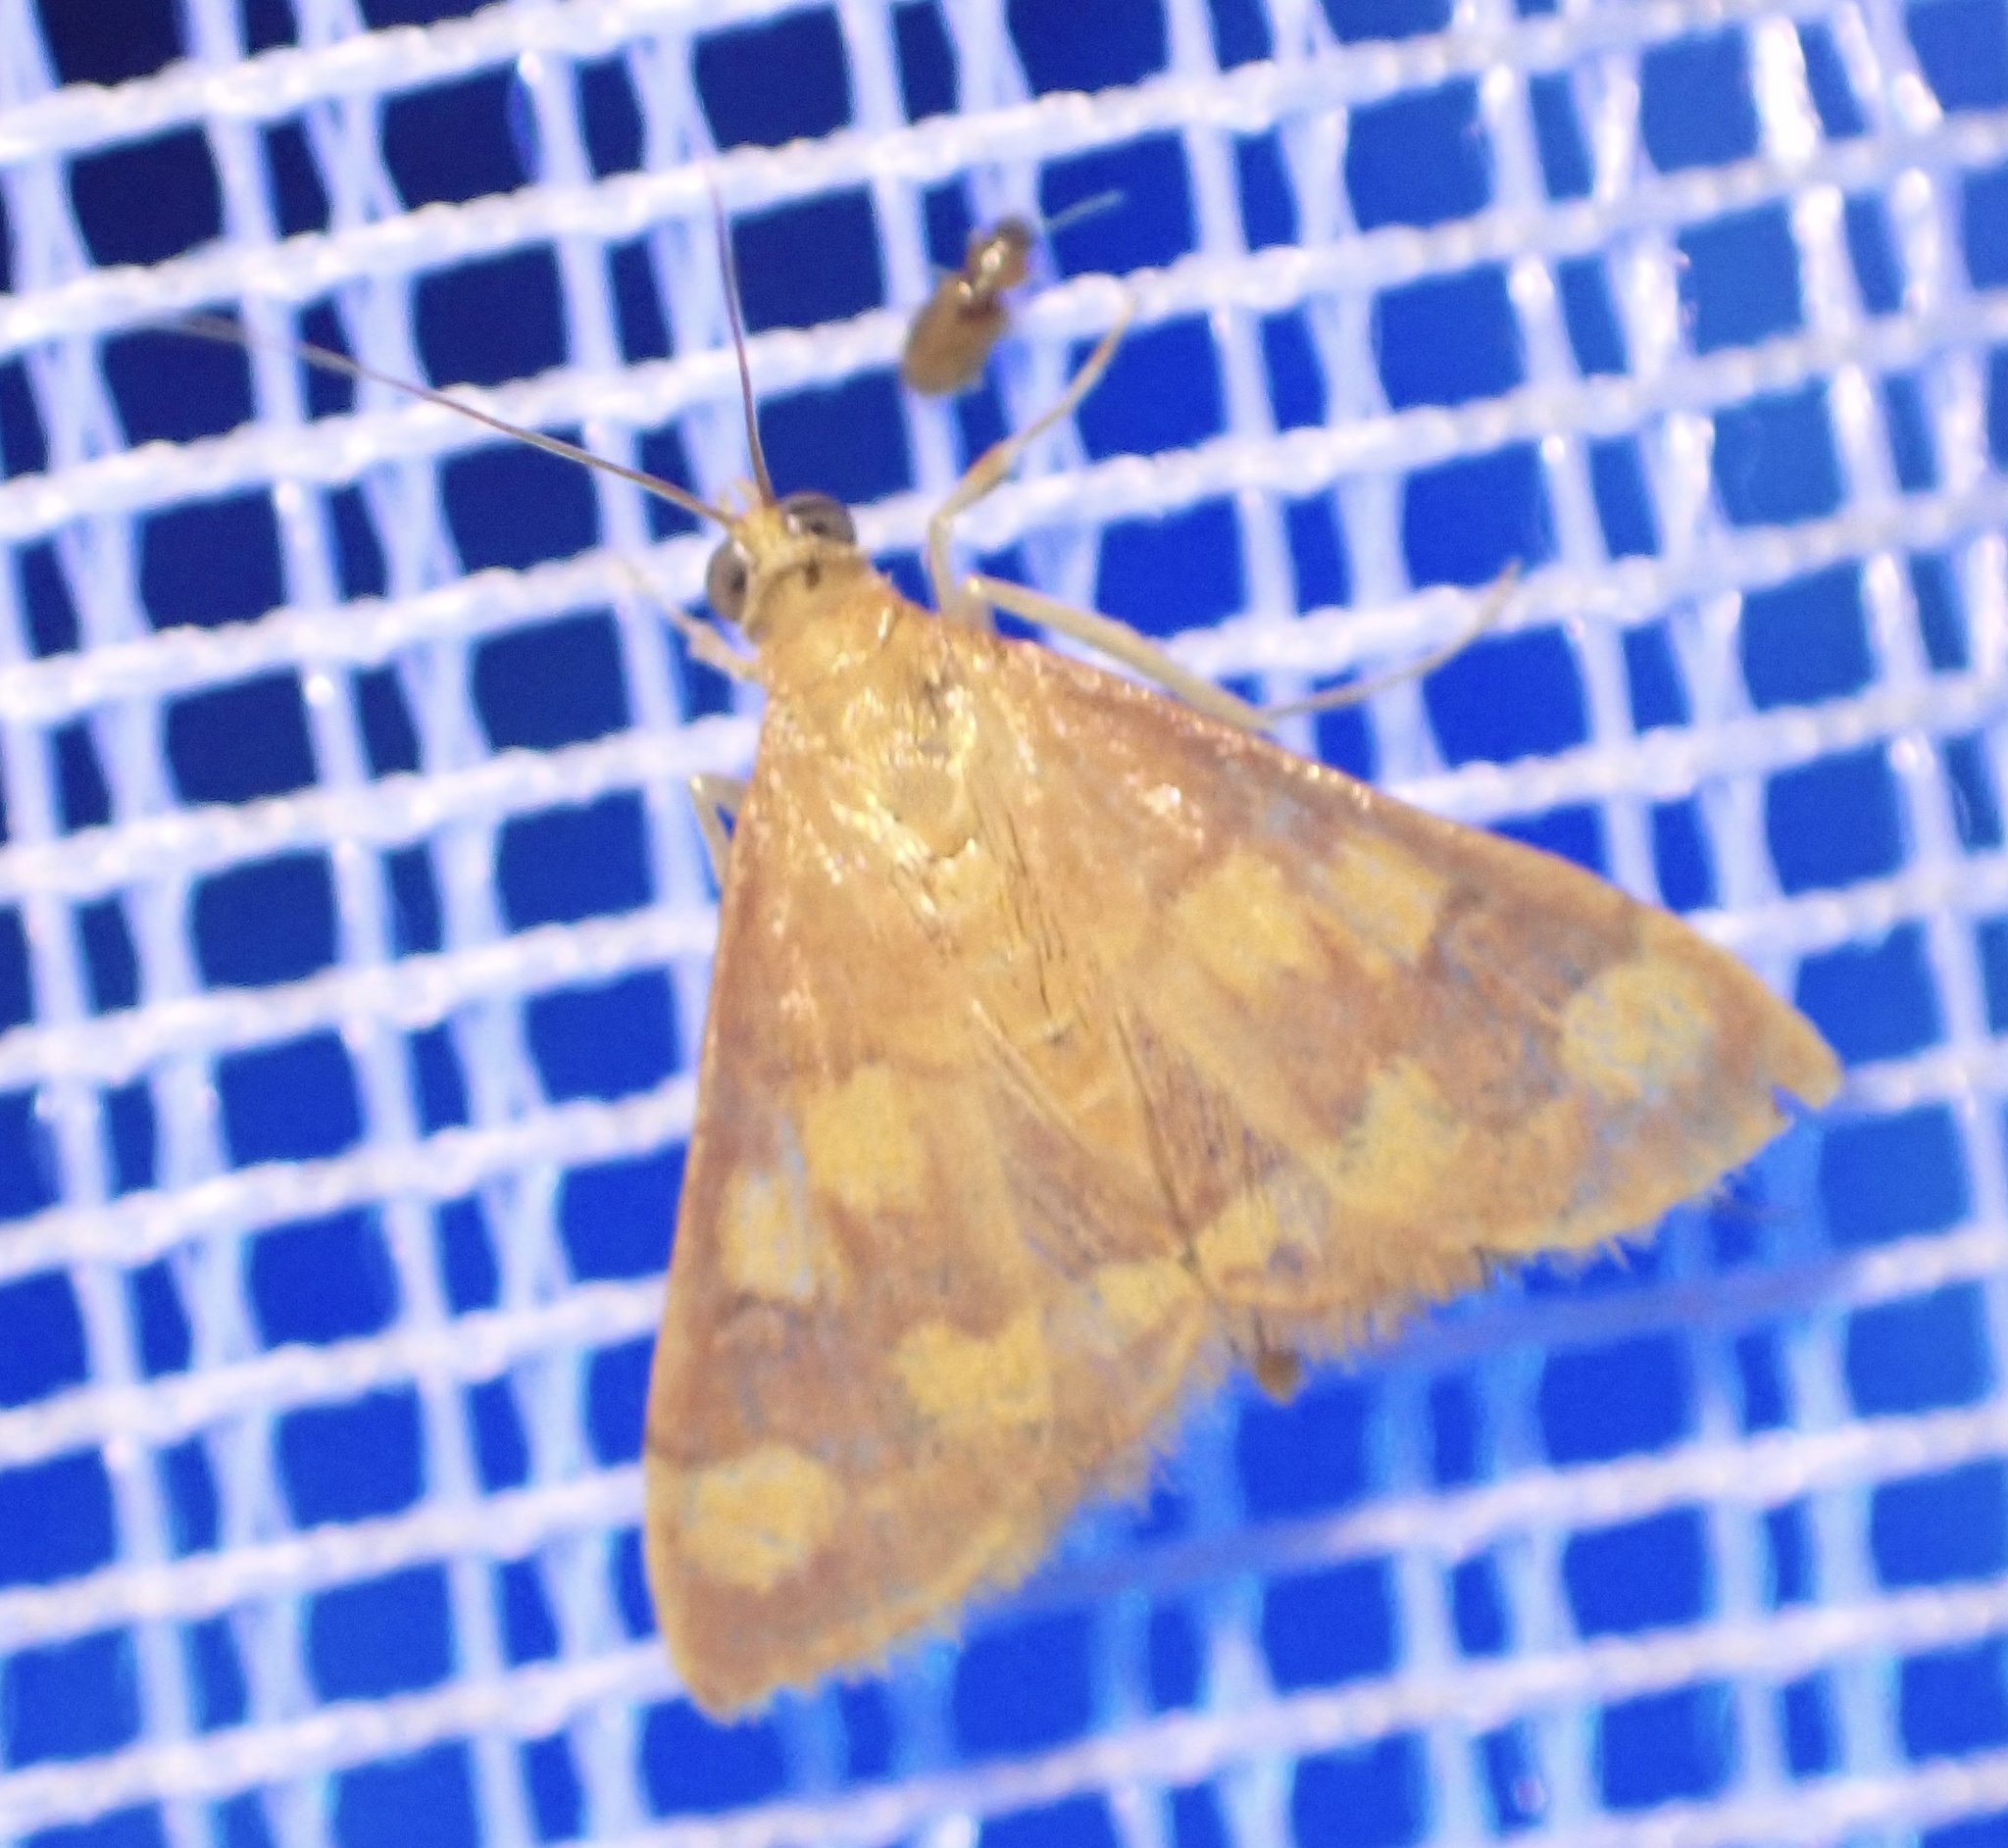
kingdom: Animalia
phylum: Arthropoda
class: Insecta
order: Lepidoptera
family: Crambidae
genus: Pyrausta
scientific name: Pyrausta phoenicealis
